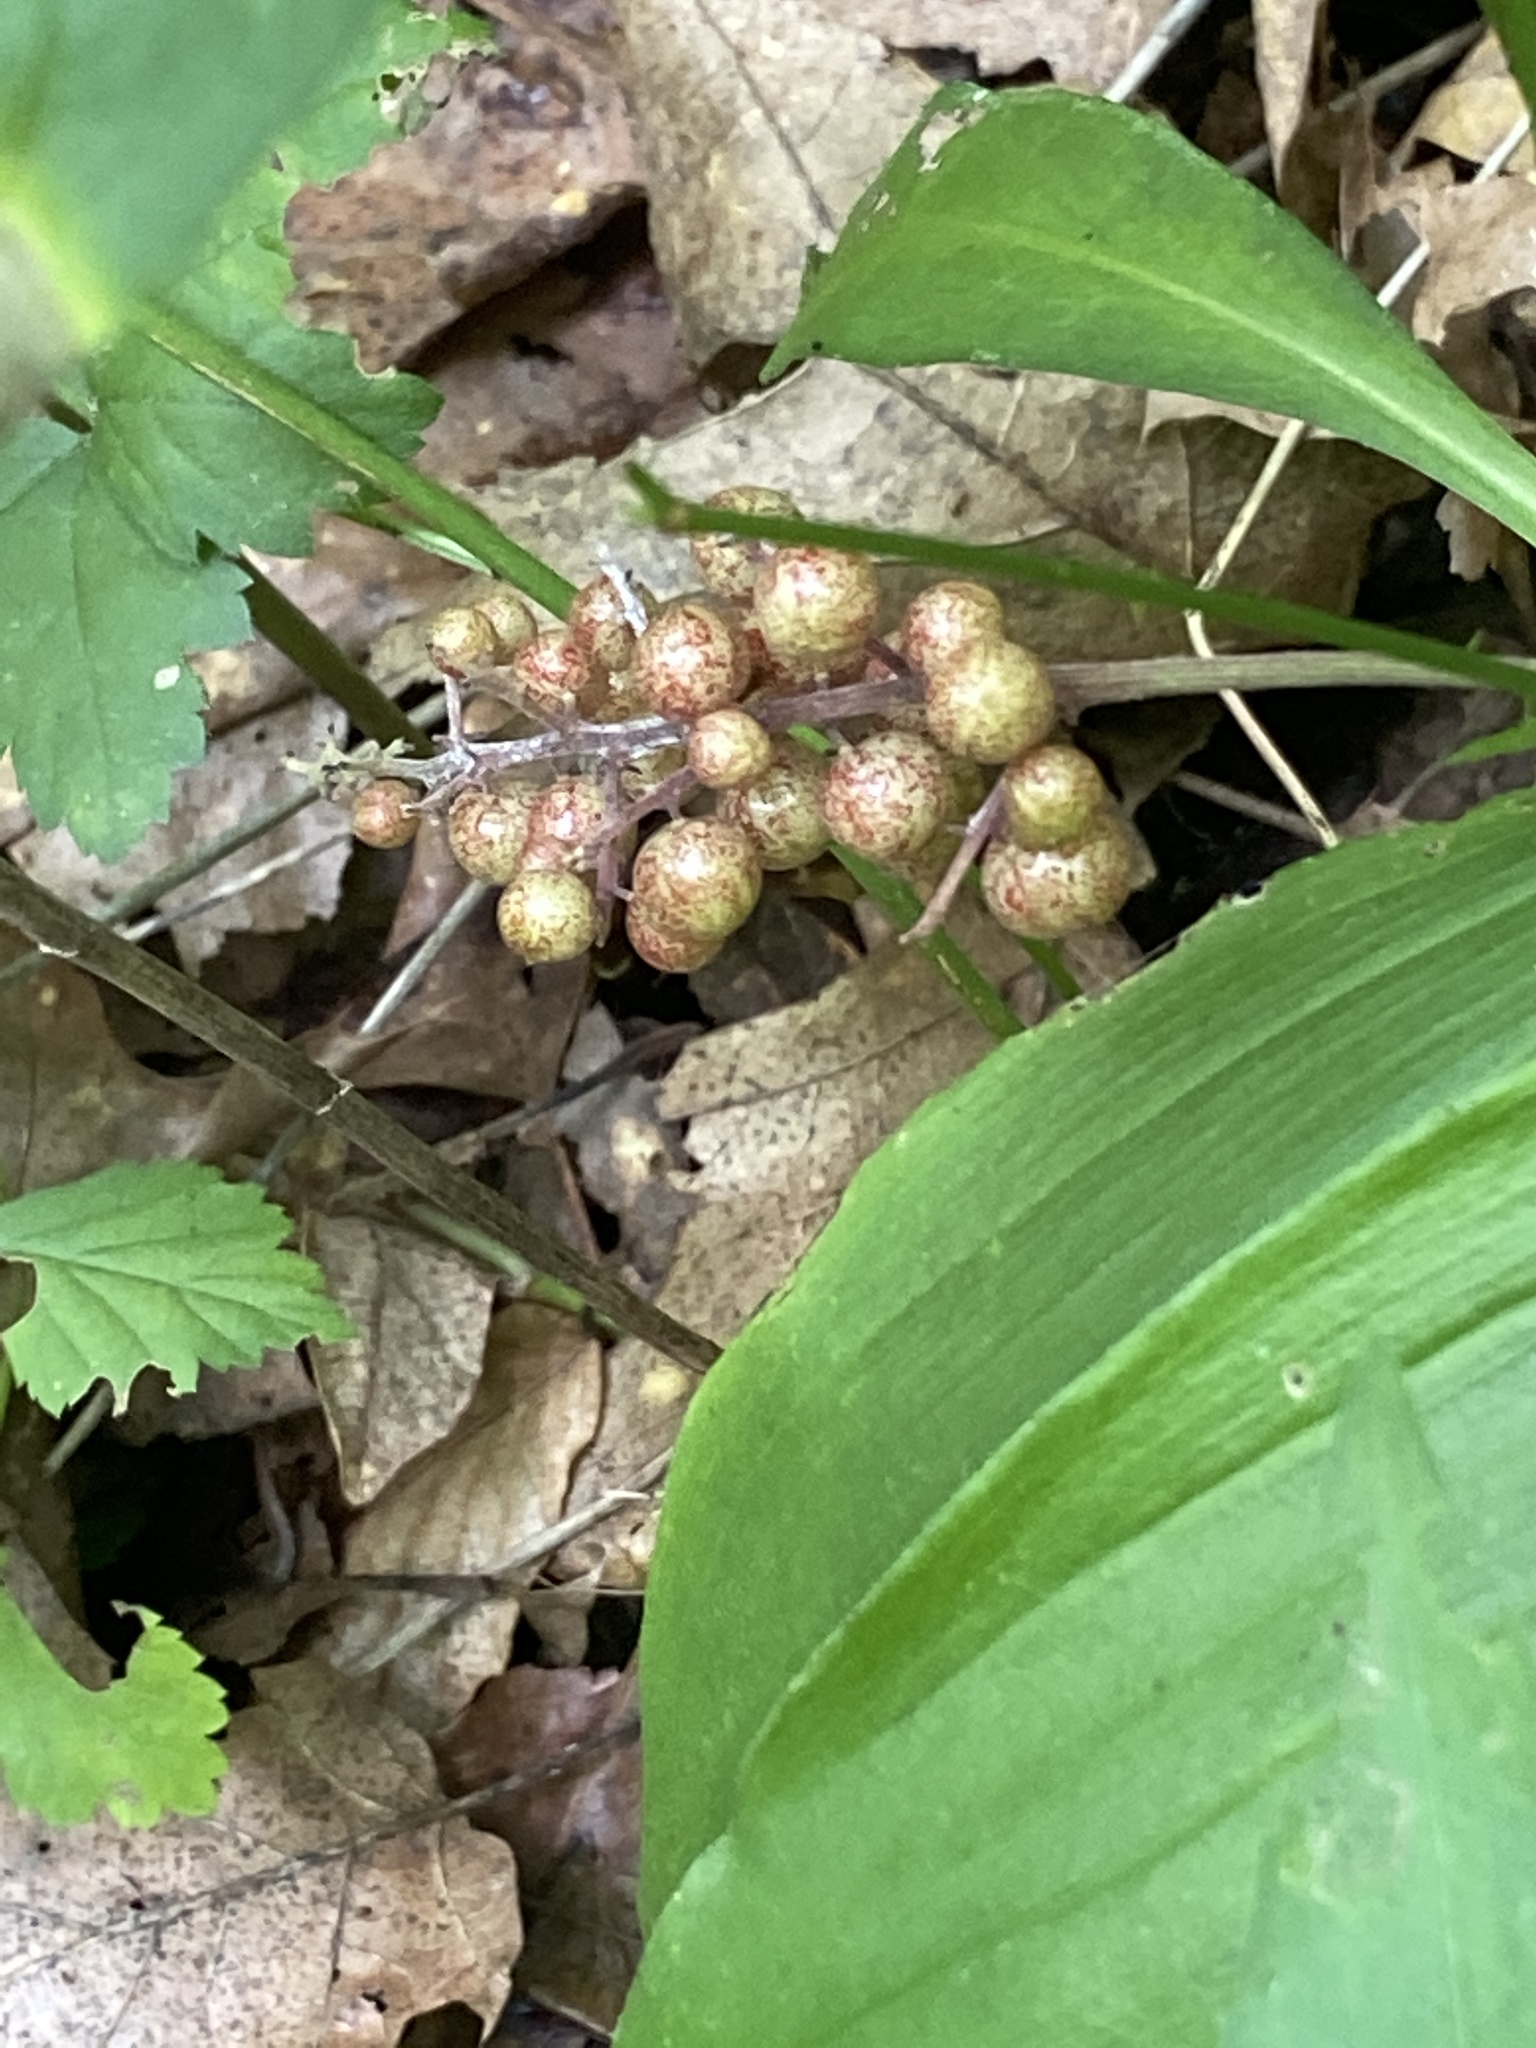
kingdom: Plantae
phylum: Tracheophyta
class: Liliopsida
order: Asparagales
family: Asparagaceae
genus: Maianthemum
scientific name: Maianthemum racemosum
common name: False spikenard
